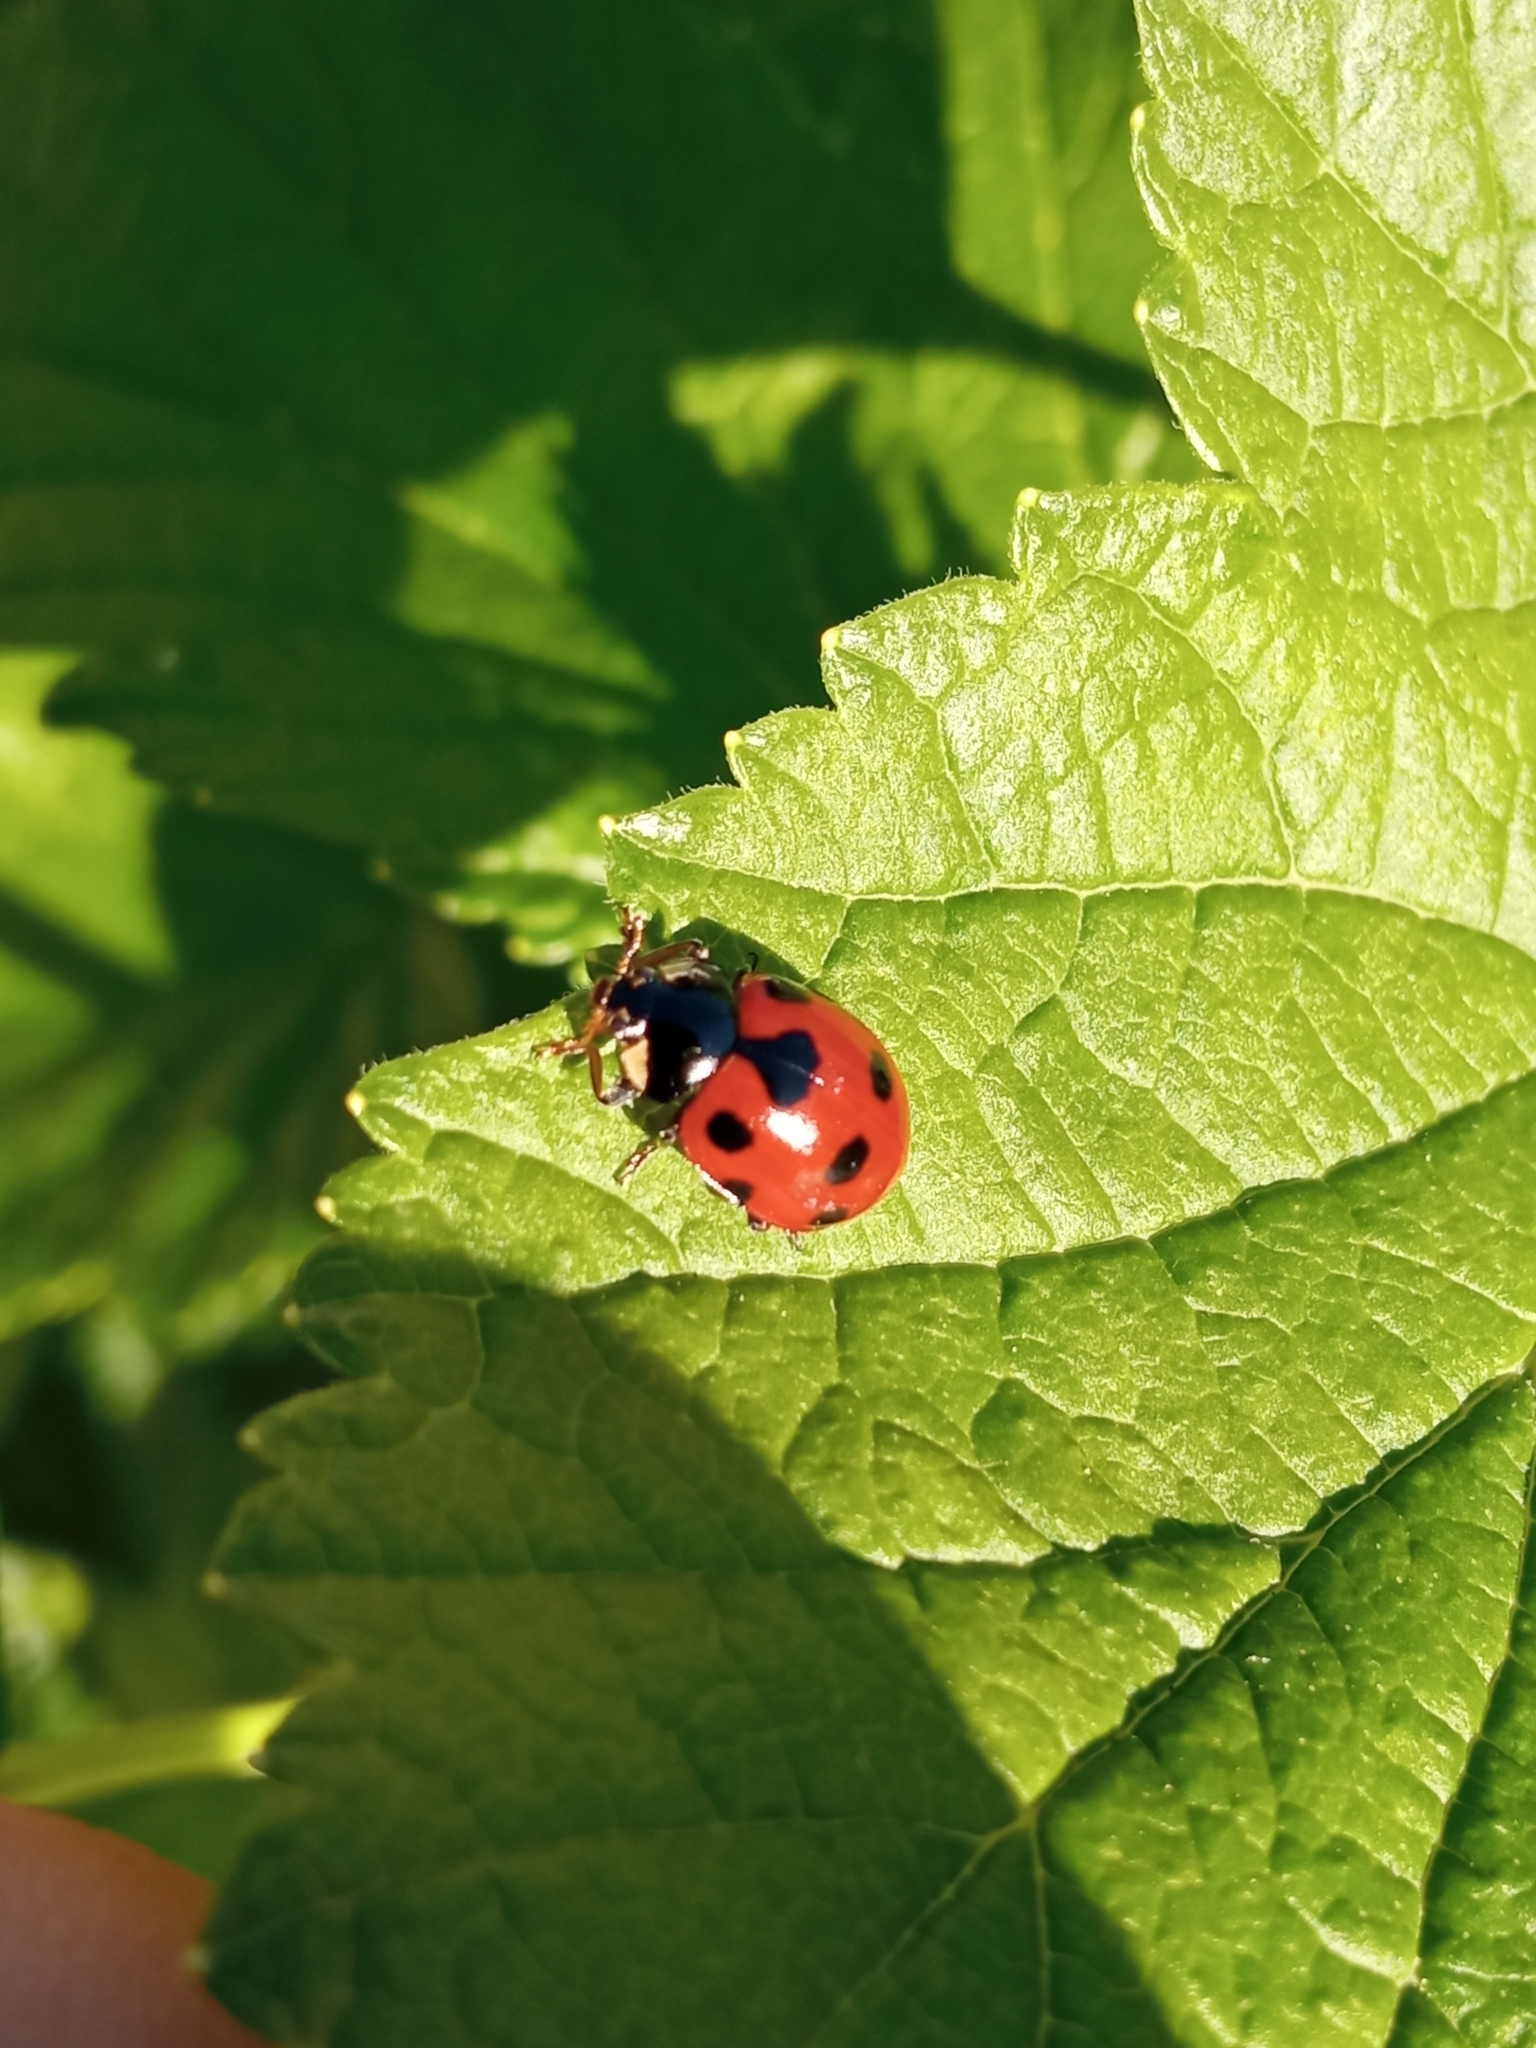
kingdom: Animalia
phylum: Arthropoda
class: Insecta
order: Coleoptera
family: Coccinellidae
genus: Ceratomegilla
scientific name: Ceratomegilla undecimnotata
